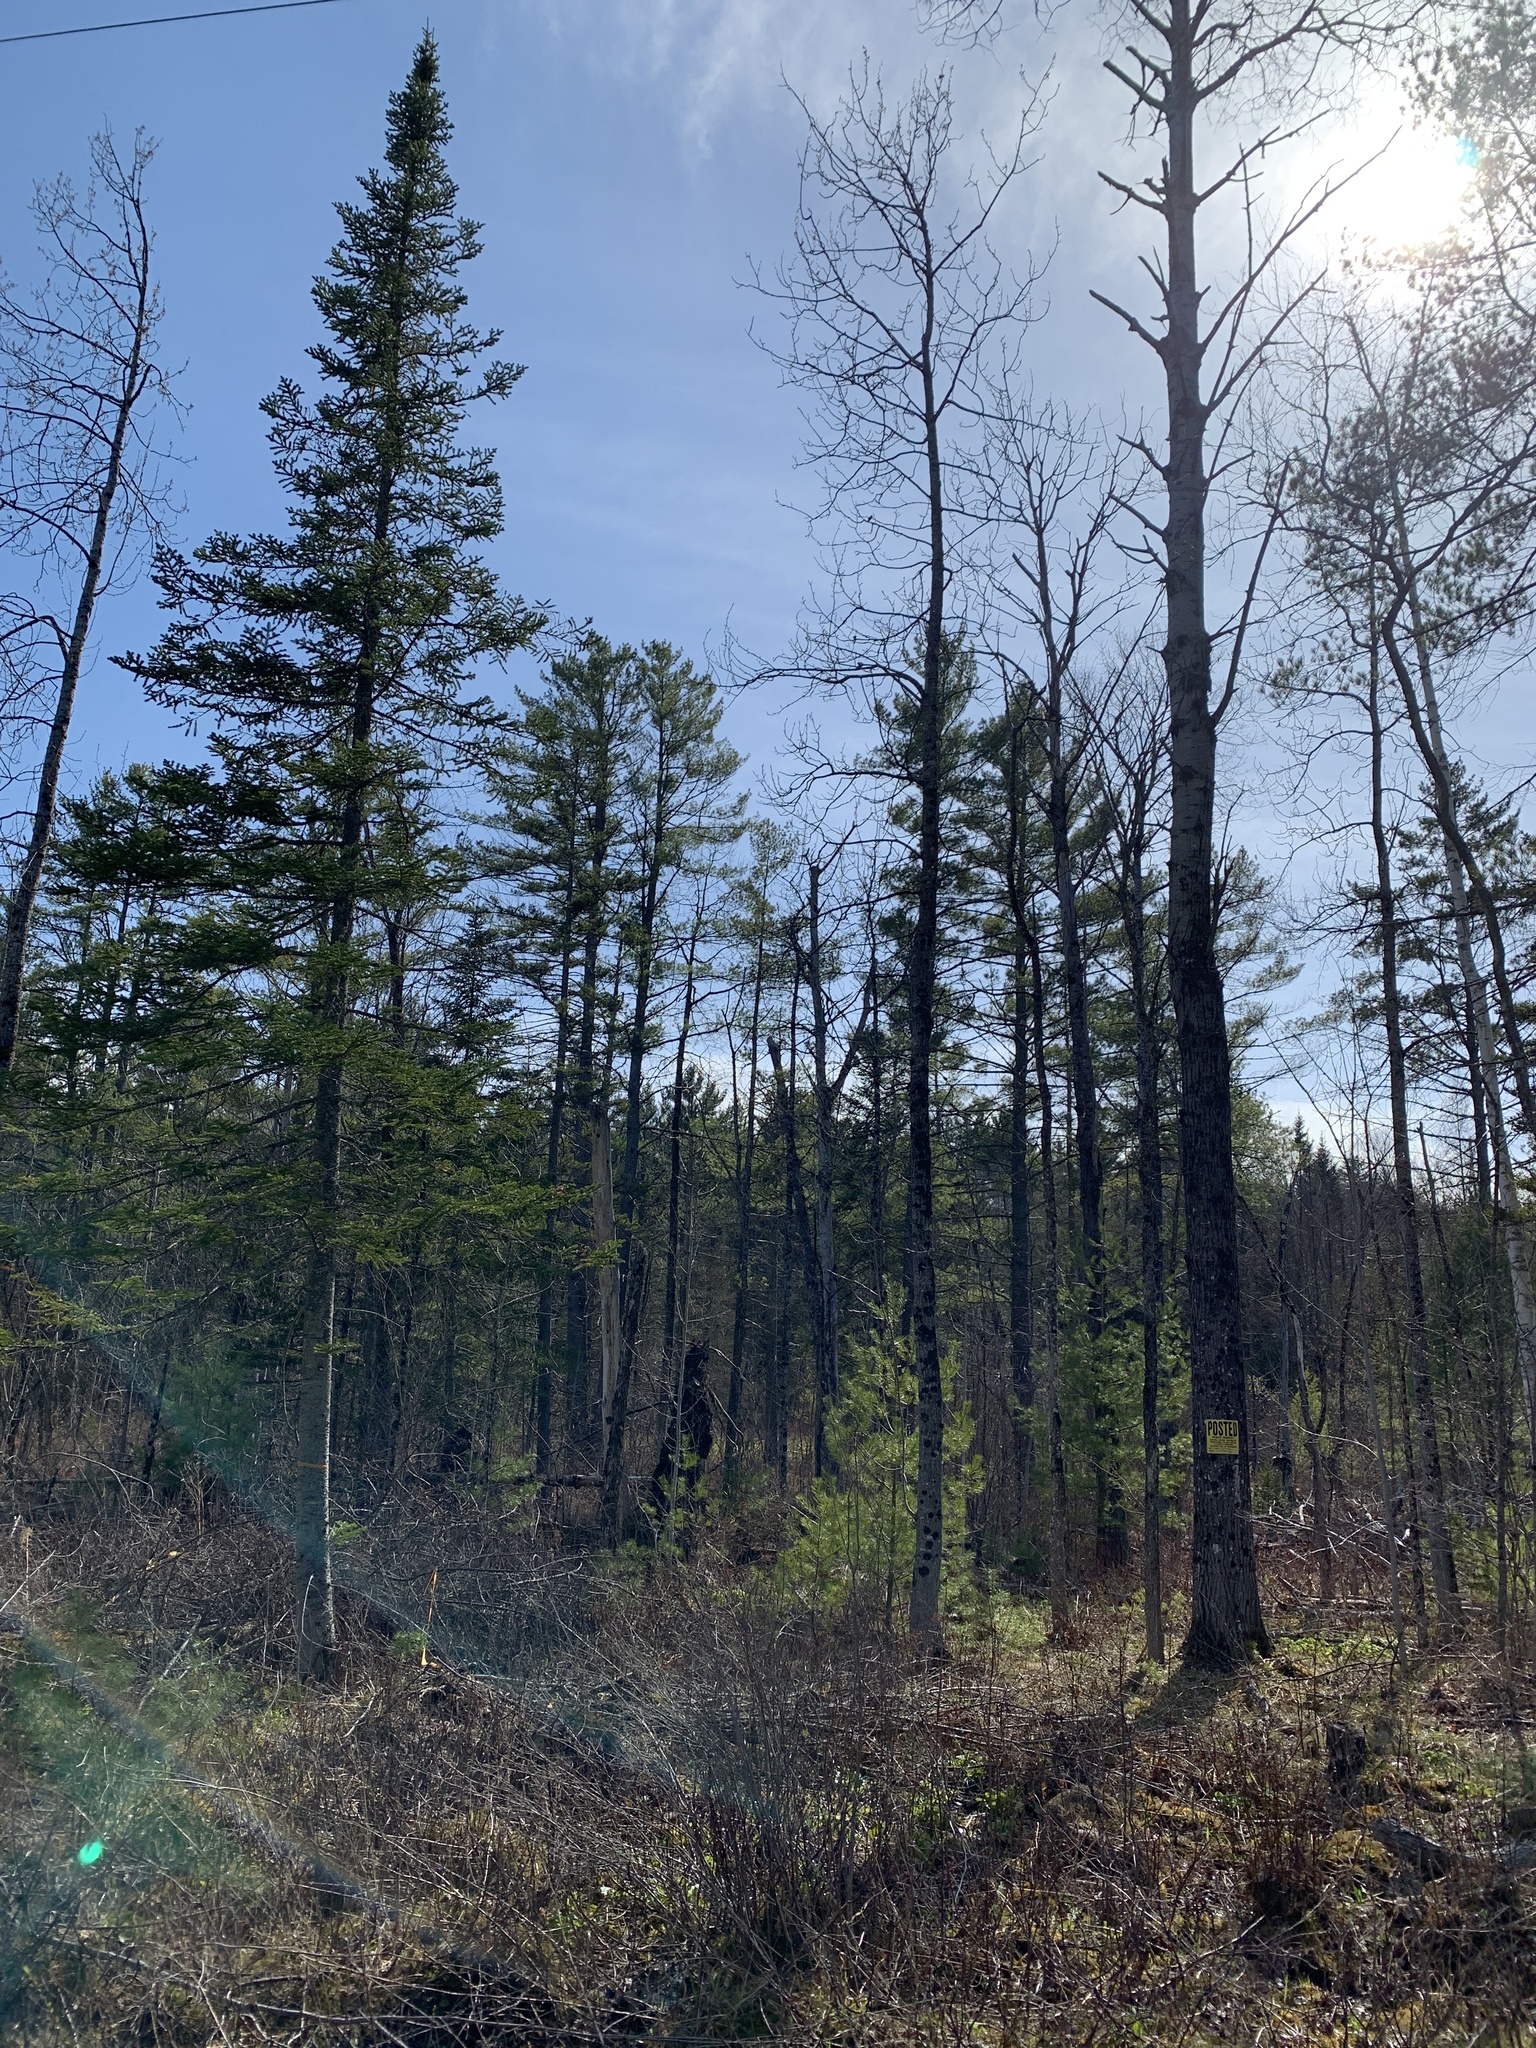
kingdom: Plantae
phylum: Tracheophyta
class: Pinopsida
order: Pinales
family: Pinaceae
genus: Pinus
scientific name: Pinus strobus
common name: Weymouth pine
